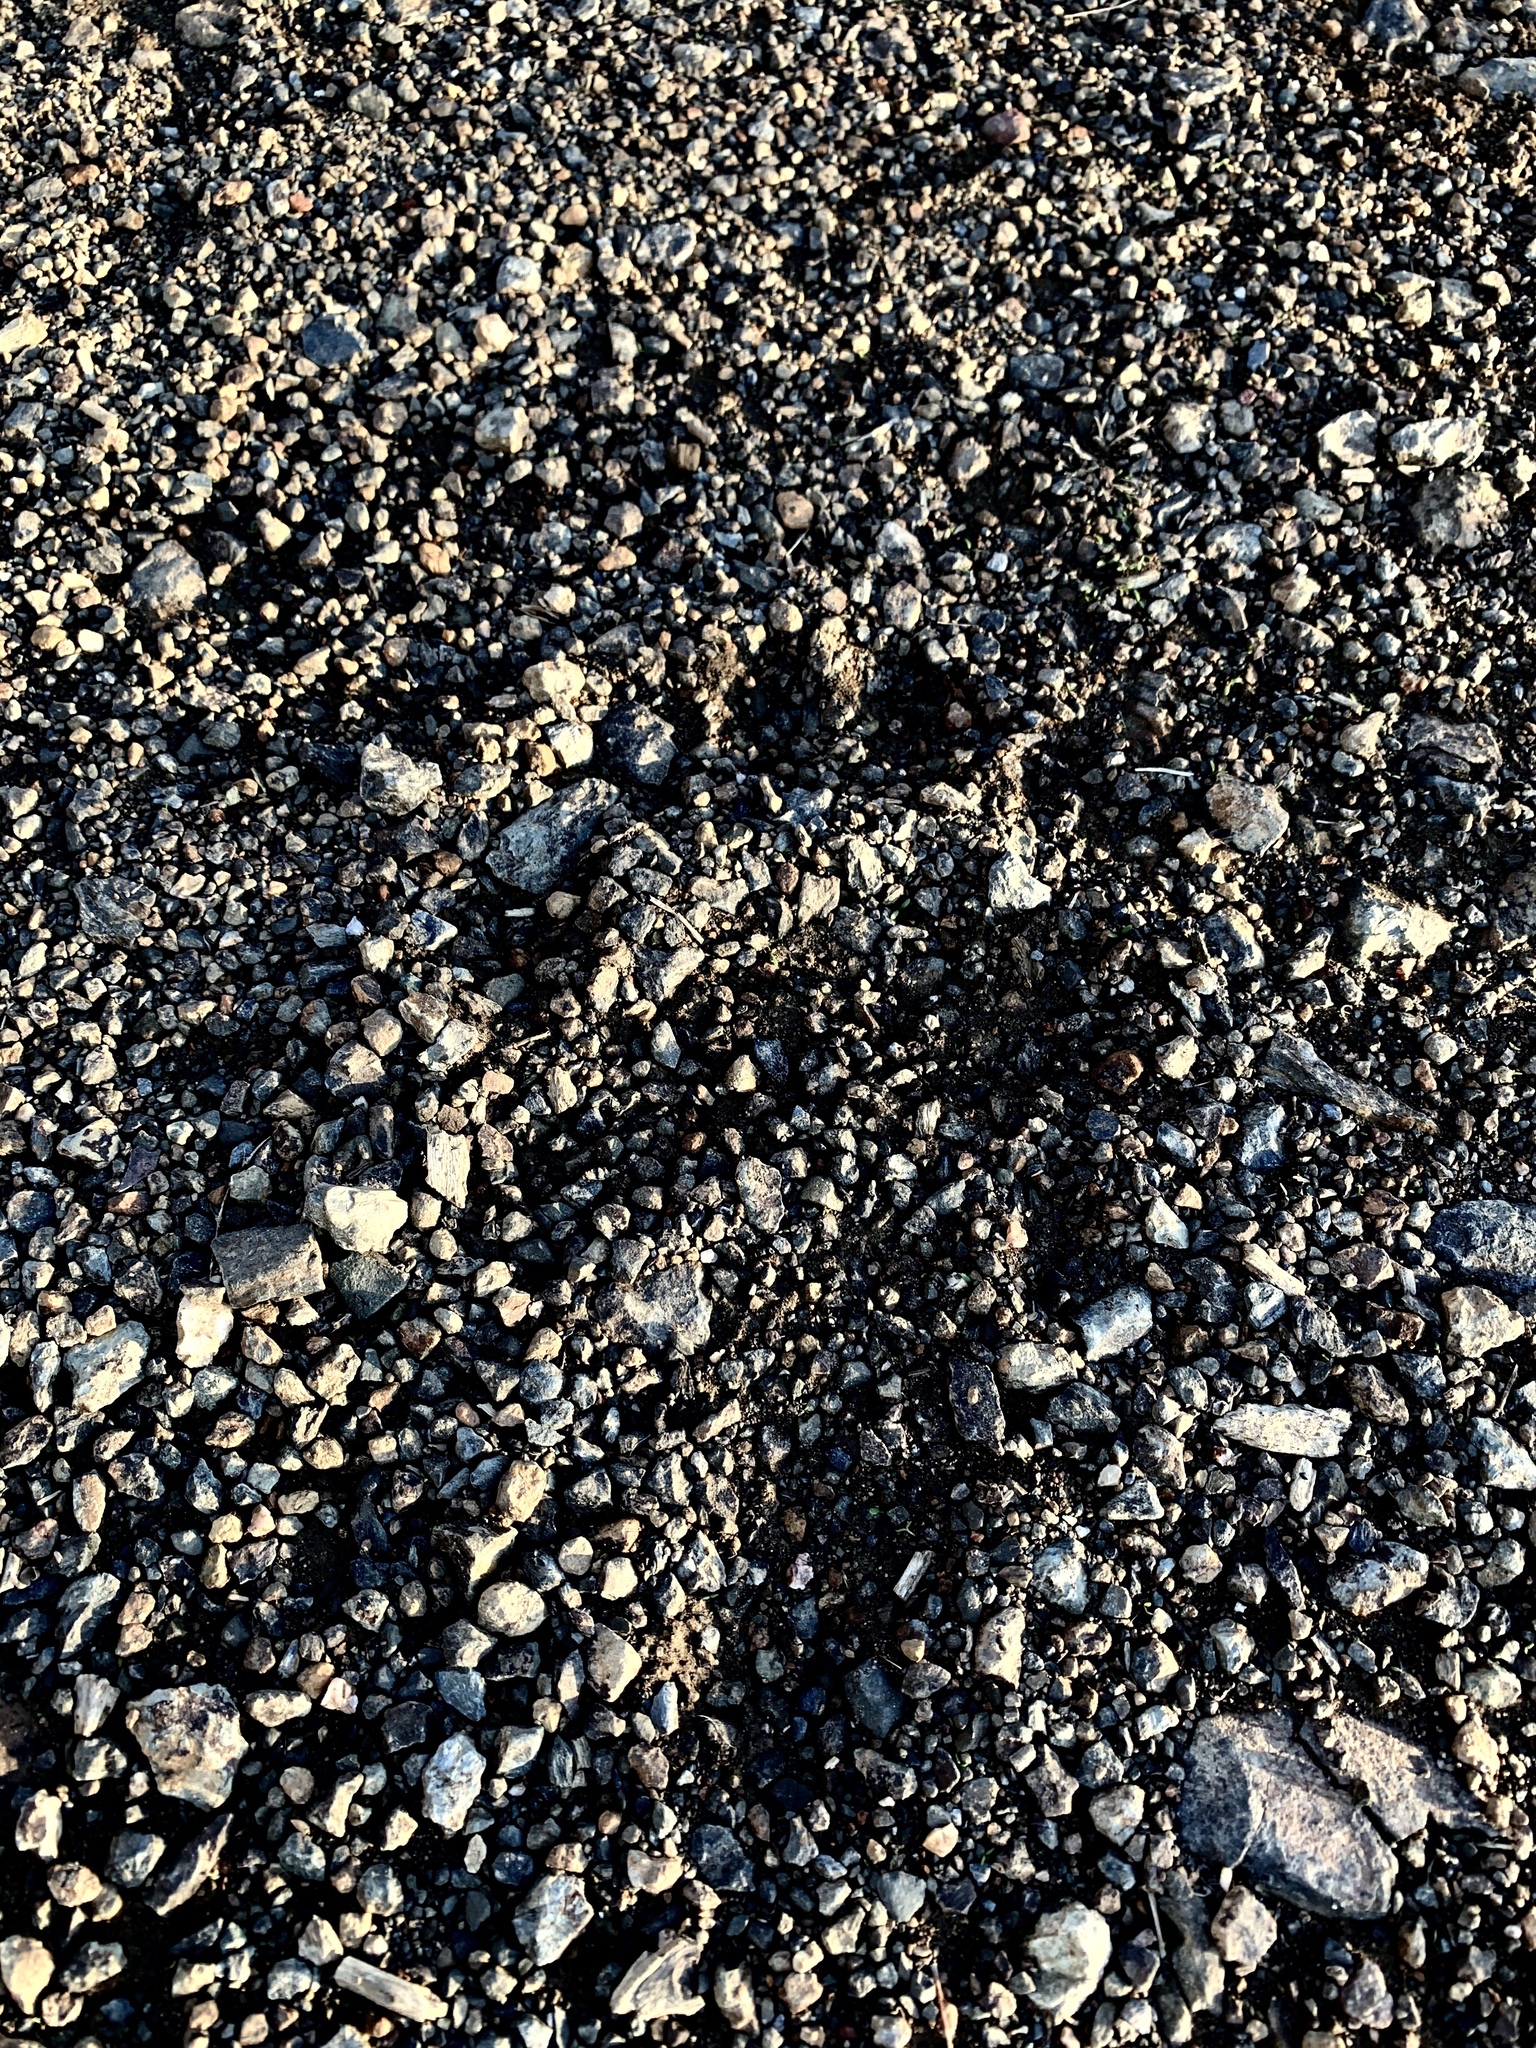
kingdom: Animalia
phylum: Chordata
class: Mammalia
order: Carnivora
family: Ursidae
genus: Ursus
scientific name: Ursus americanus
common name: American black bear
